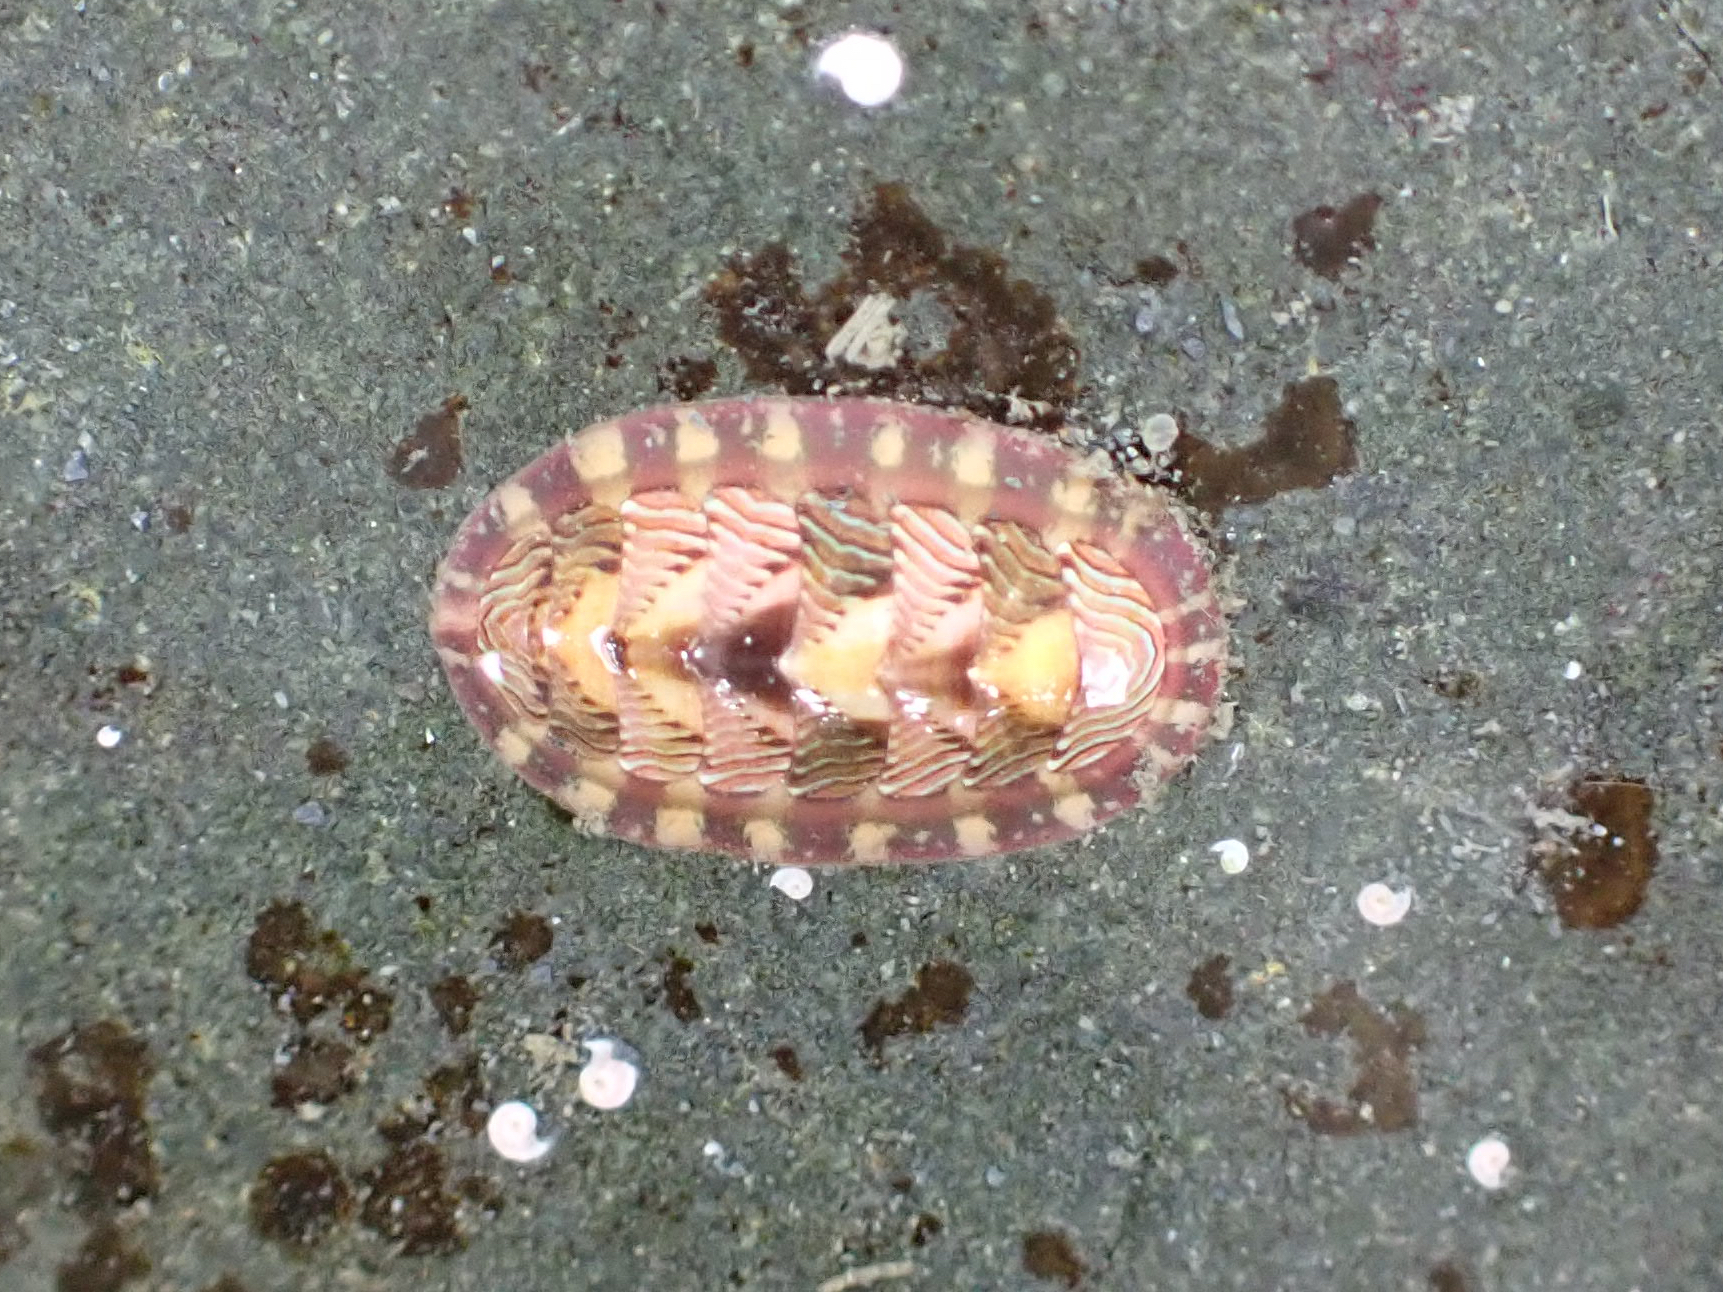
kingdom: Animalia
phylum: Mollusca
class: Polyplacophora
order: Chitonida
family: Tonicellidae
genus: Tonicella
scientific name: Tonicella lineata
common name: Lined chiton
